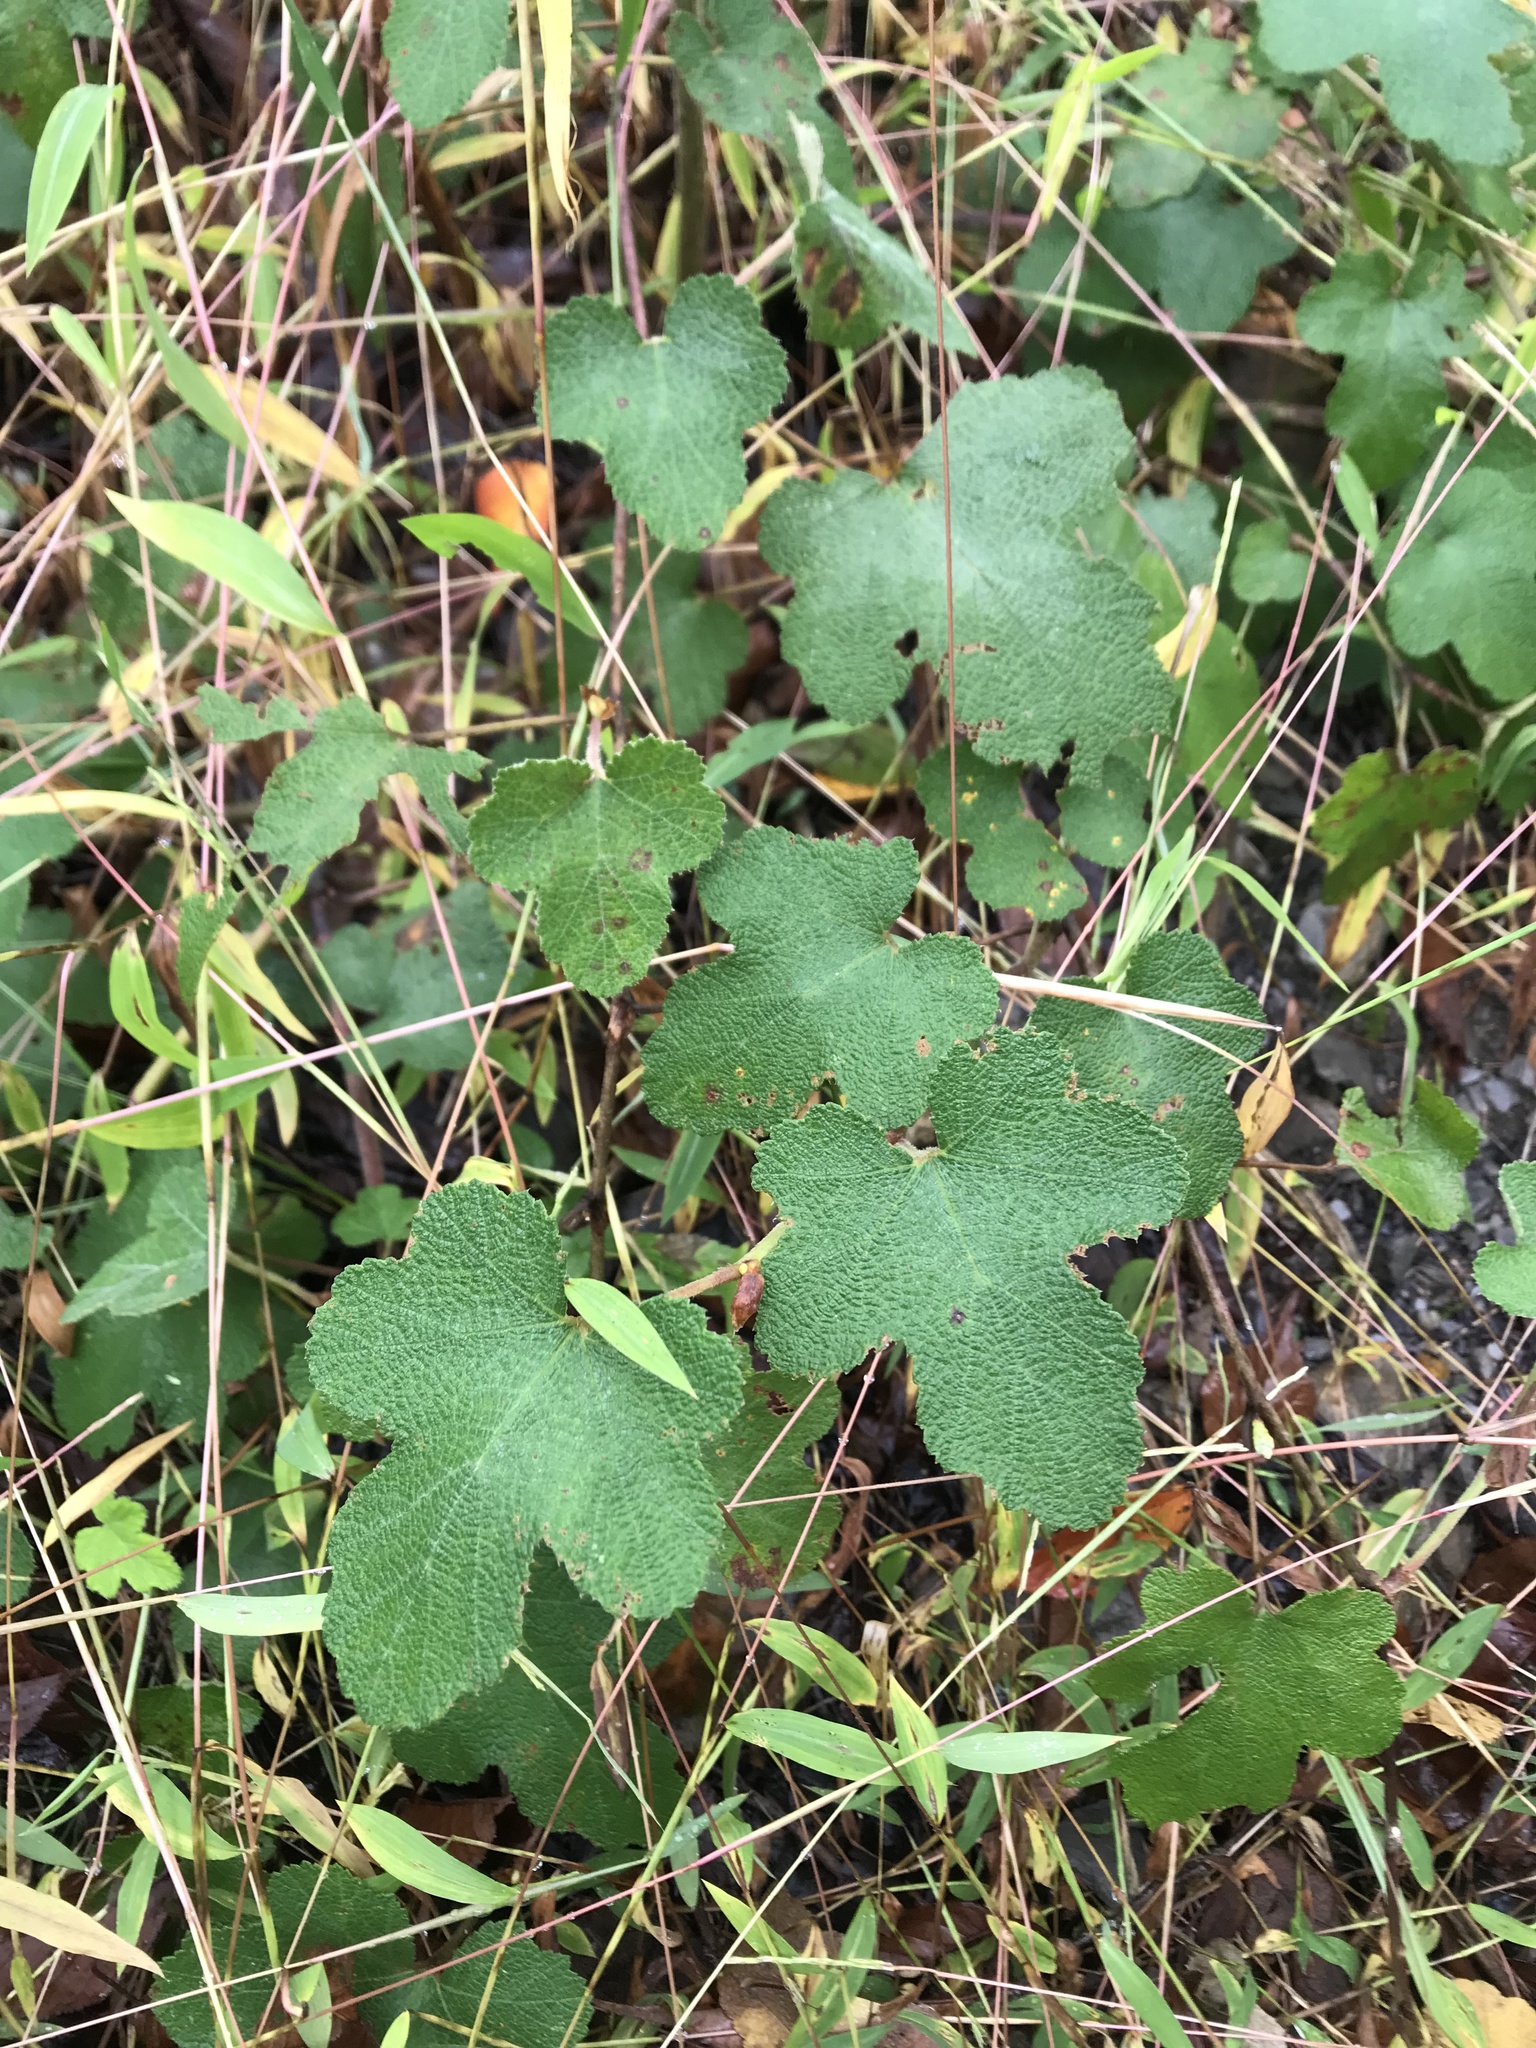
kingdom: Plantae
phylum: Tracheophyta
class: Magnoliopsida
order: Rosales
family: Rosaceae
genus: Rubus
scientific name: Rubus formosensis
